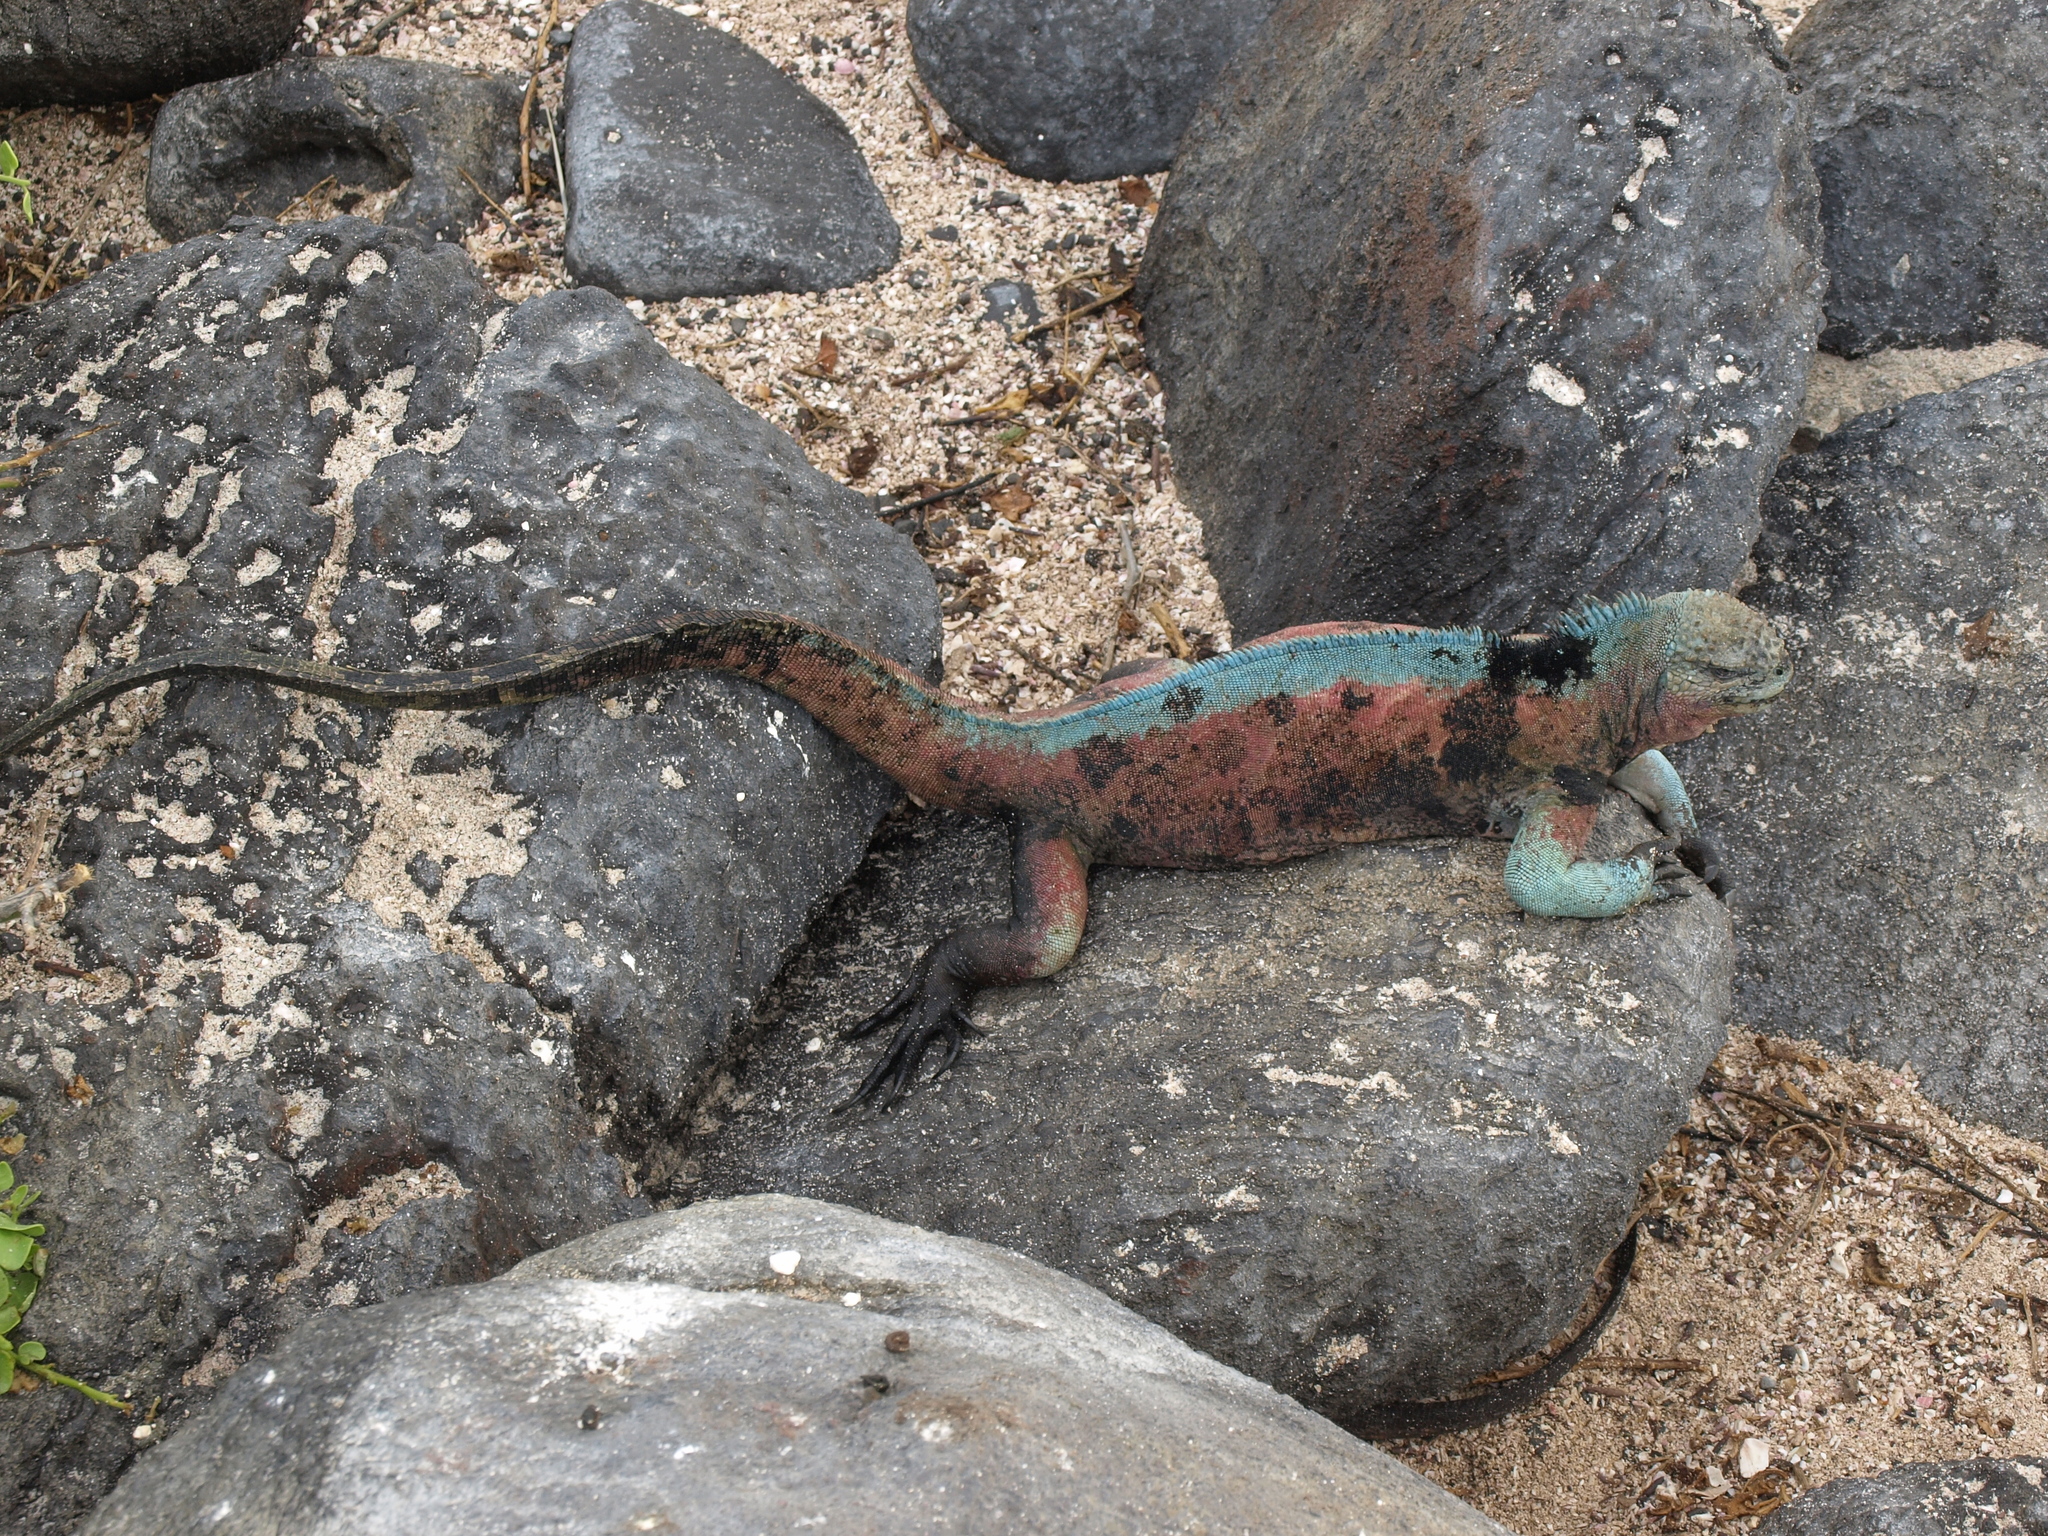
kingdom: Animalia
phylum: Chordata
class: Squamata
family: Iguanidae
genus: Amblyrhynchus
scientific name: Amblyrhynchus cristatus
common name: Marine iguana
